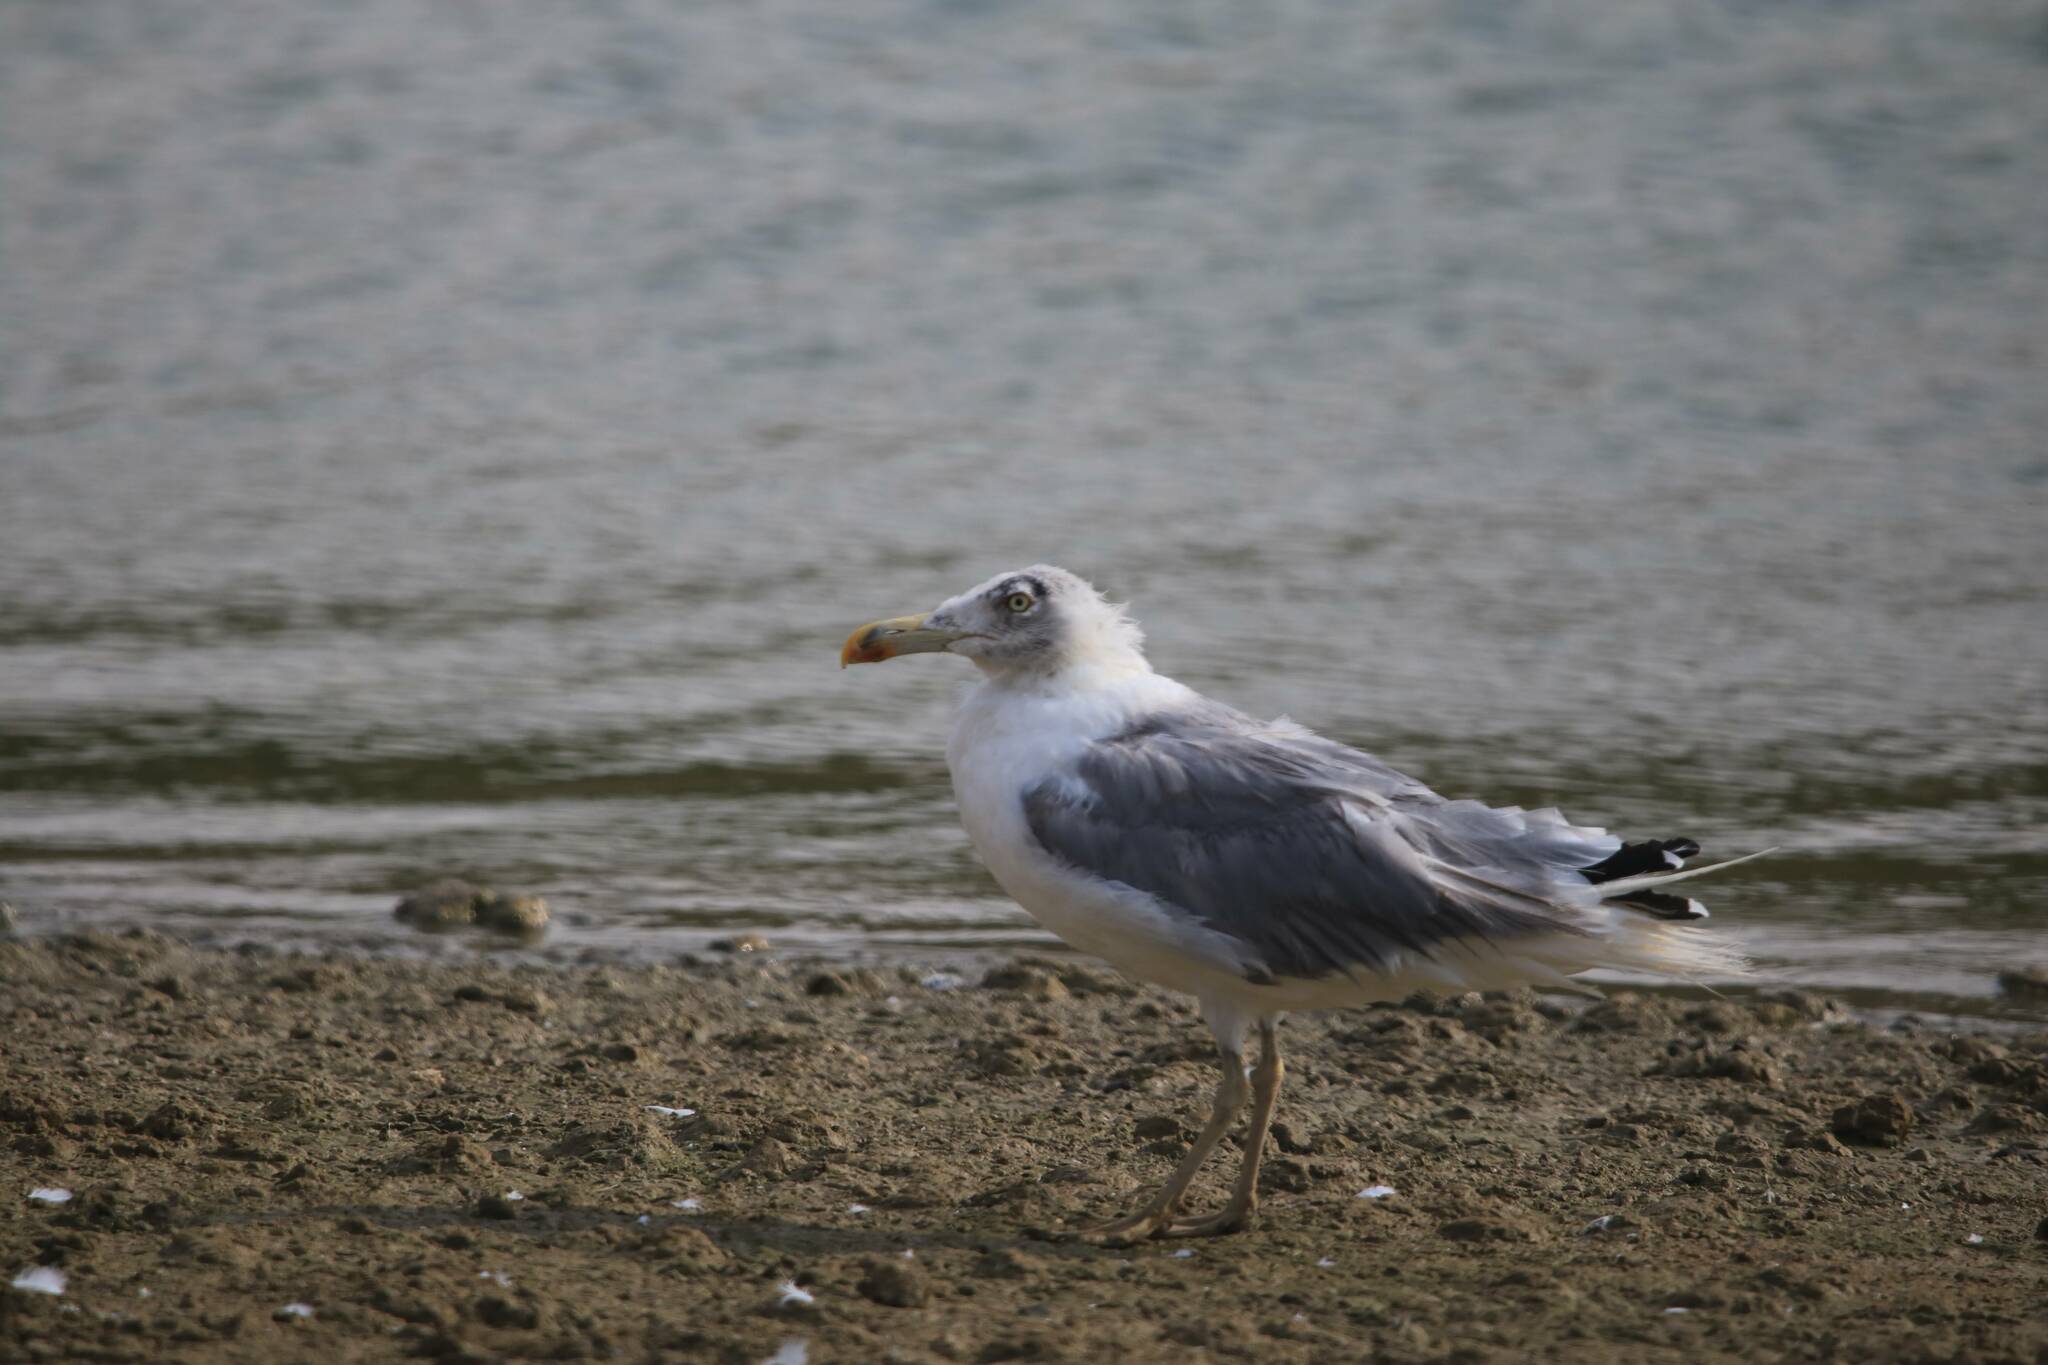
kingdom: Animalia
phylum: Chordata
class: Aves
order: Charadriiformes
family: Laridae
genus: Larus
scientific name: Larus michahellis
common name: Yellow-legged gull
